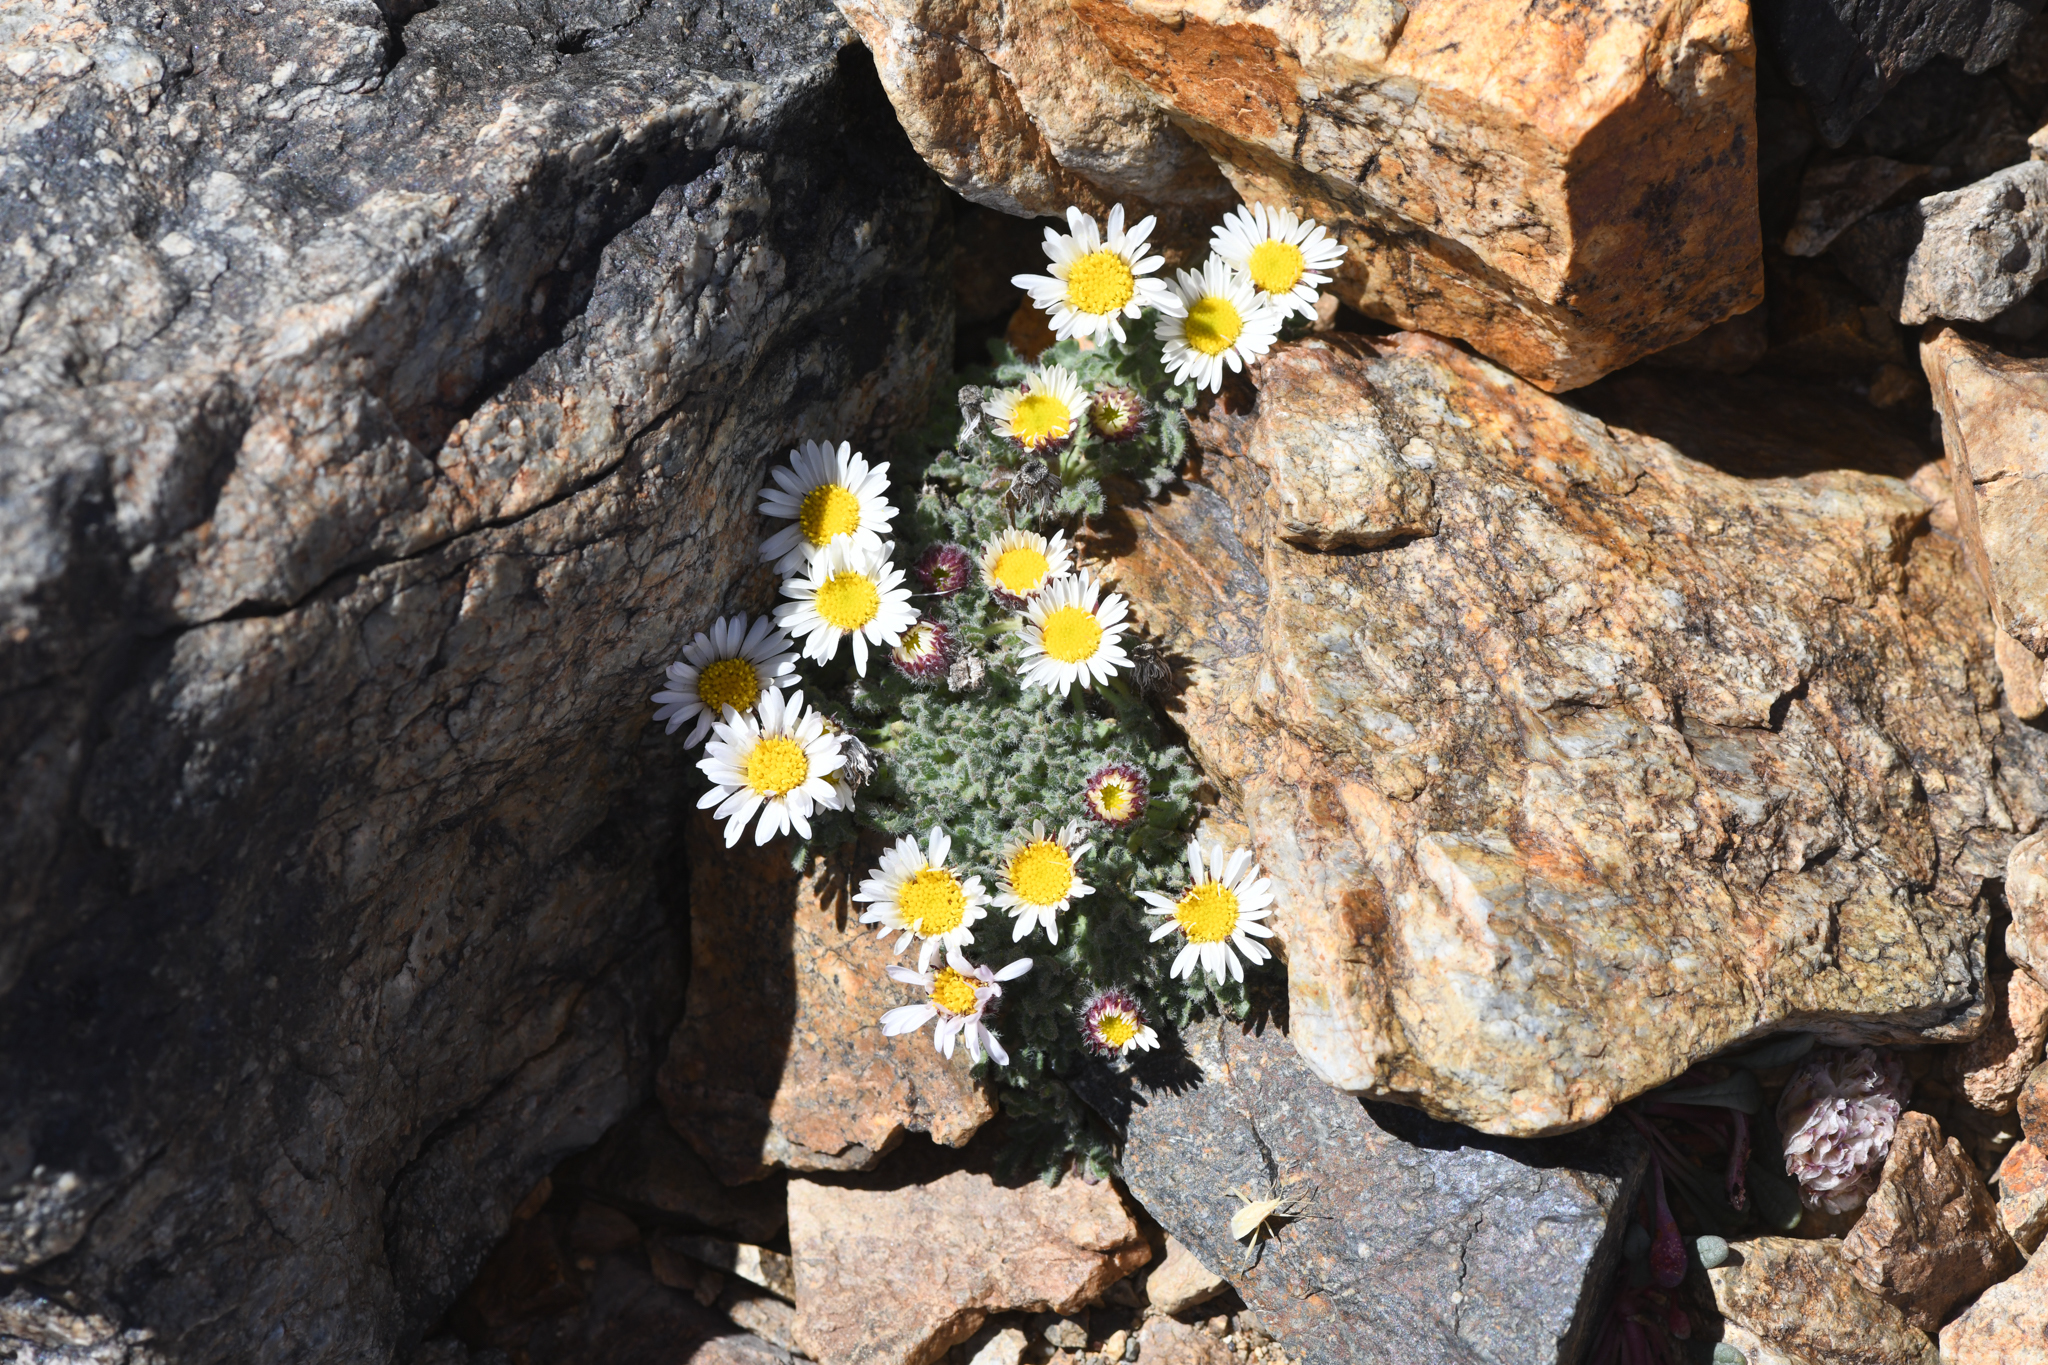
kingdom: Plantae
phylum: Tracheophyta
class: Magnoliopsida
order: Asterales
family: Asteraceae
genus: Erigeron
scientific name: Erigeron vagus
